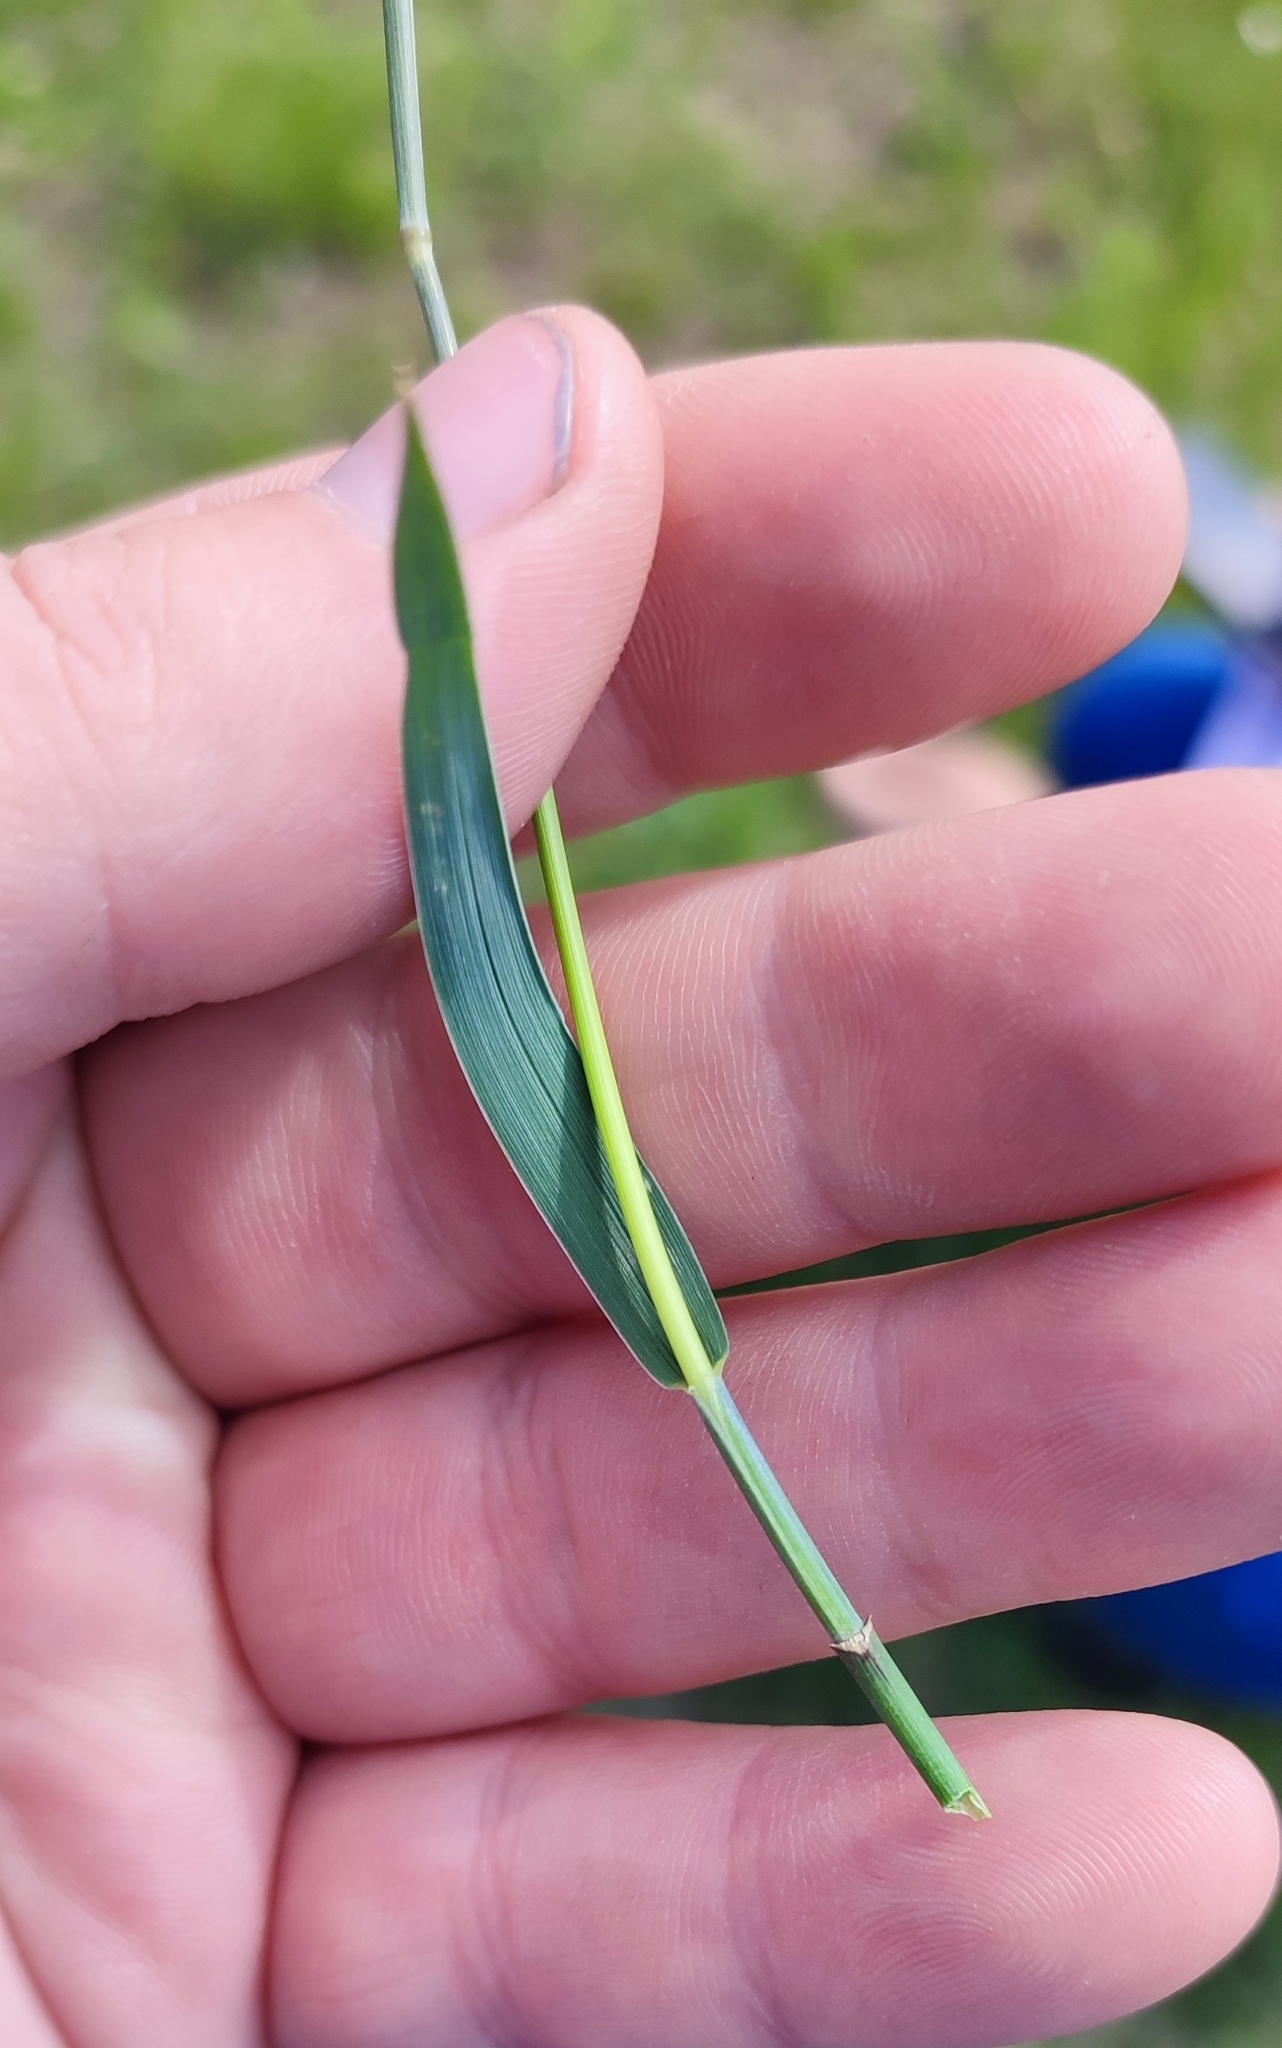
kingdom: Plantae
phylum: Tracheophyta
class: Liliopsida
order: Poales
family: Poaceae
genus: Elymus
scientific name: Elymus repens
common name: Quackgrass
